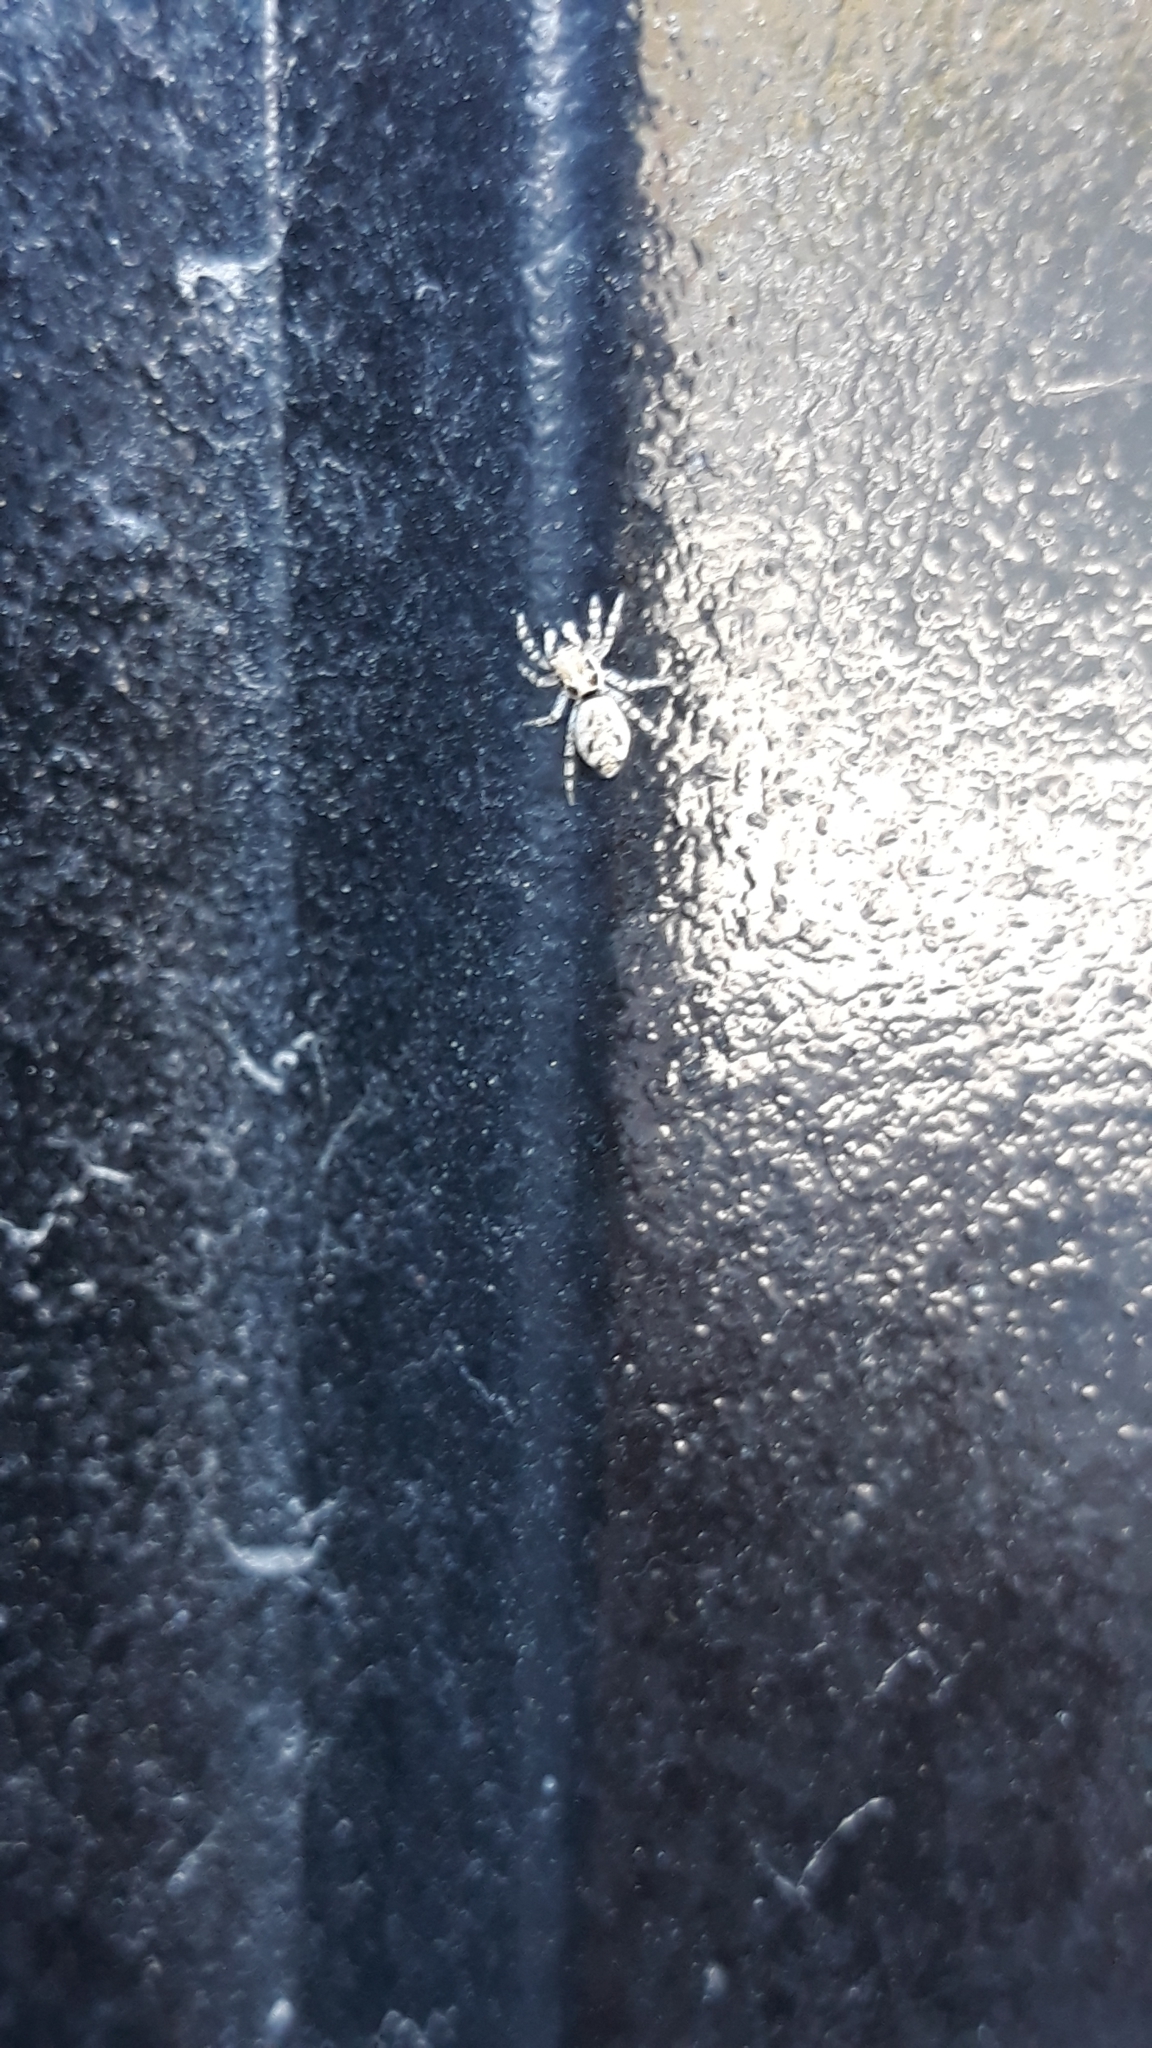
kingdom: Animalia
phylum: Arthropoda
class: Arachnida
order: Araneae
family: Salticidae
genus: Salticus
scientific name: Salticus mutabilis
